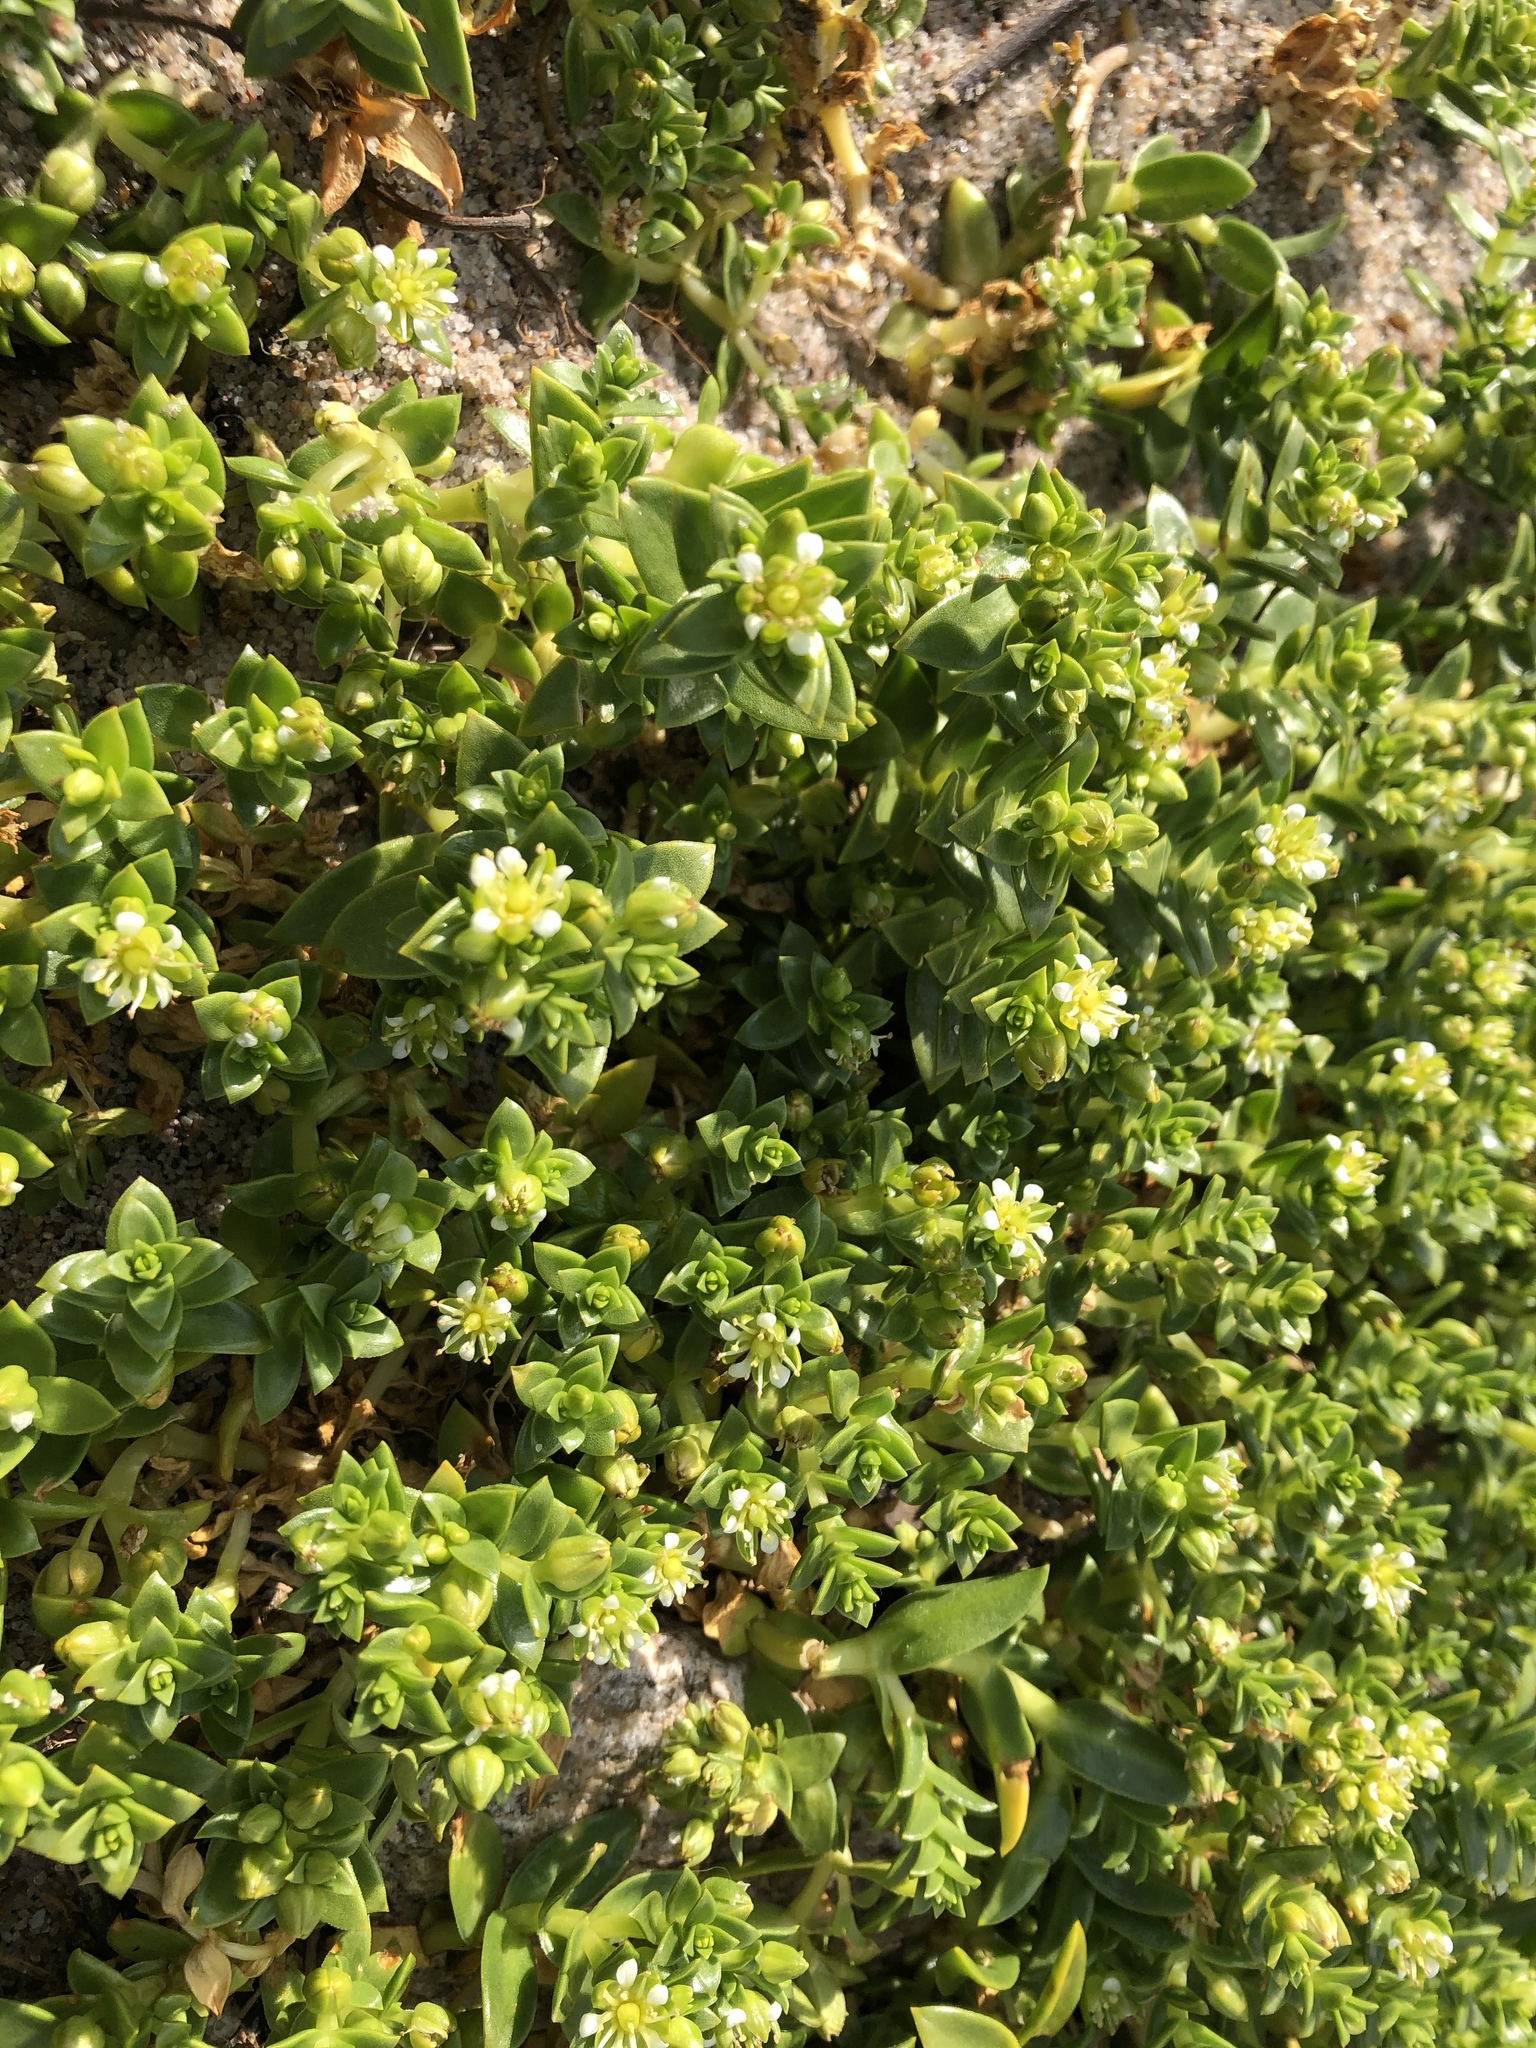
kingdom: Plantae
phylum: Tracheophyta
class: Magnoliopsida
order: Caryophyllales
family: Caryophyllaceae
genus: Honckenya
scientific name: Honckenya peploides
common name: Sea sandwort
